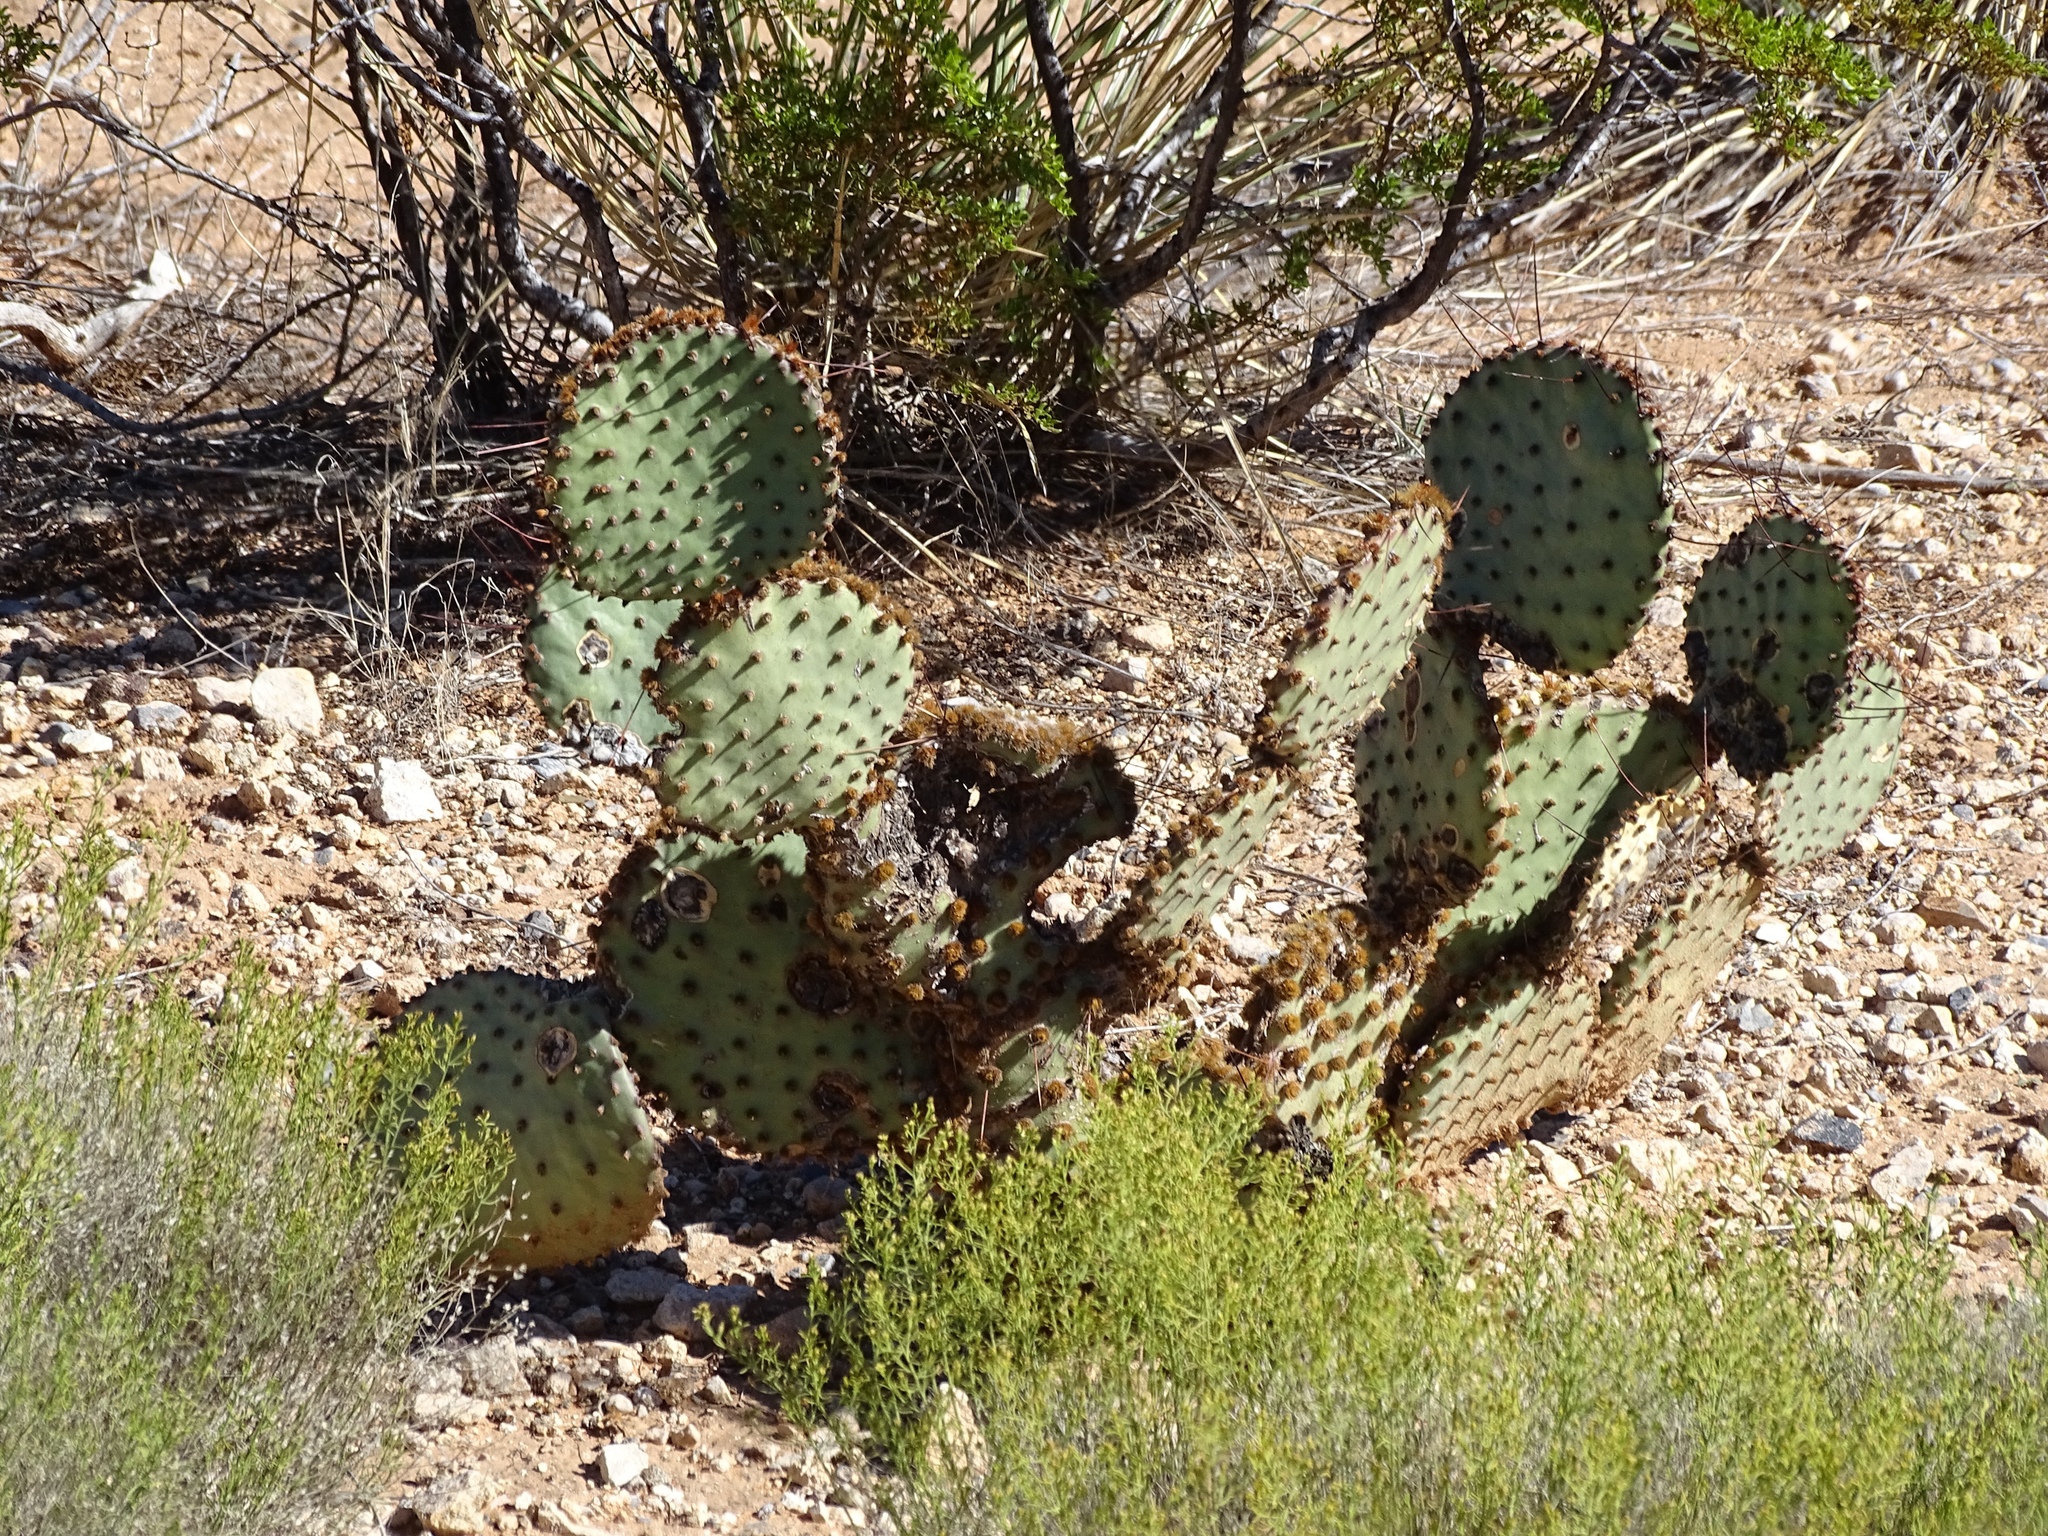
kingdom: Plantae
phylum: Tracheophyta
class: Magnoliopsida
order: Caryophyllales
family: Cactaceae
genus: Opuntia
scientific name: Opuntia macrocentra
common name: Purple prickly-pear
